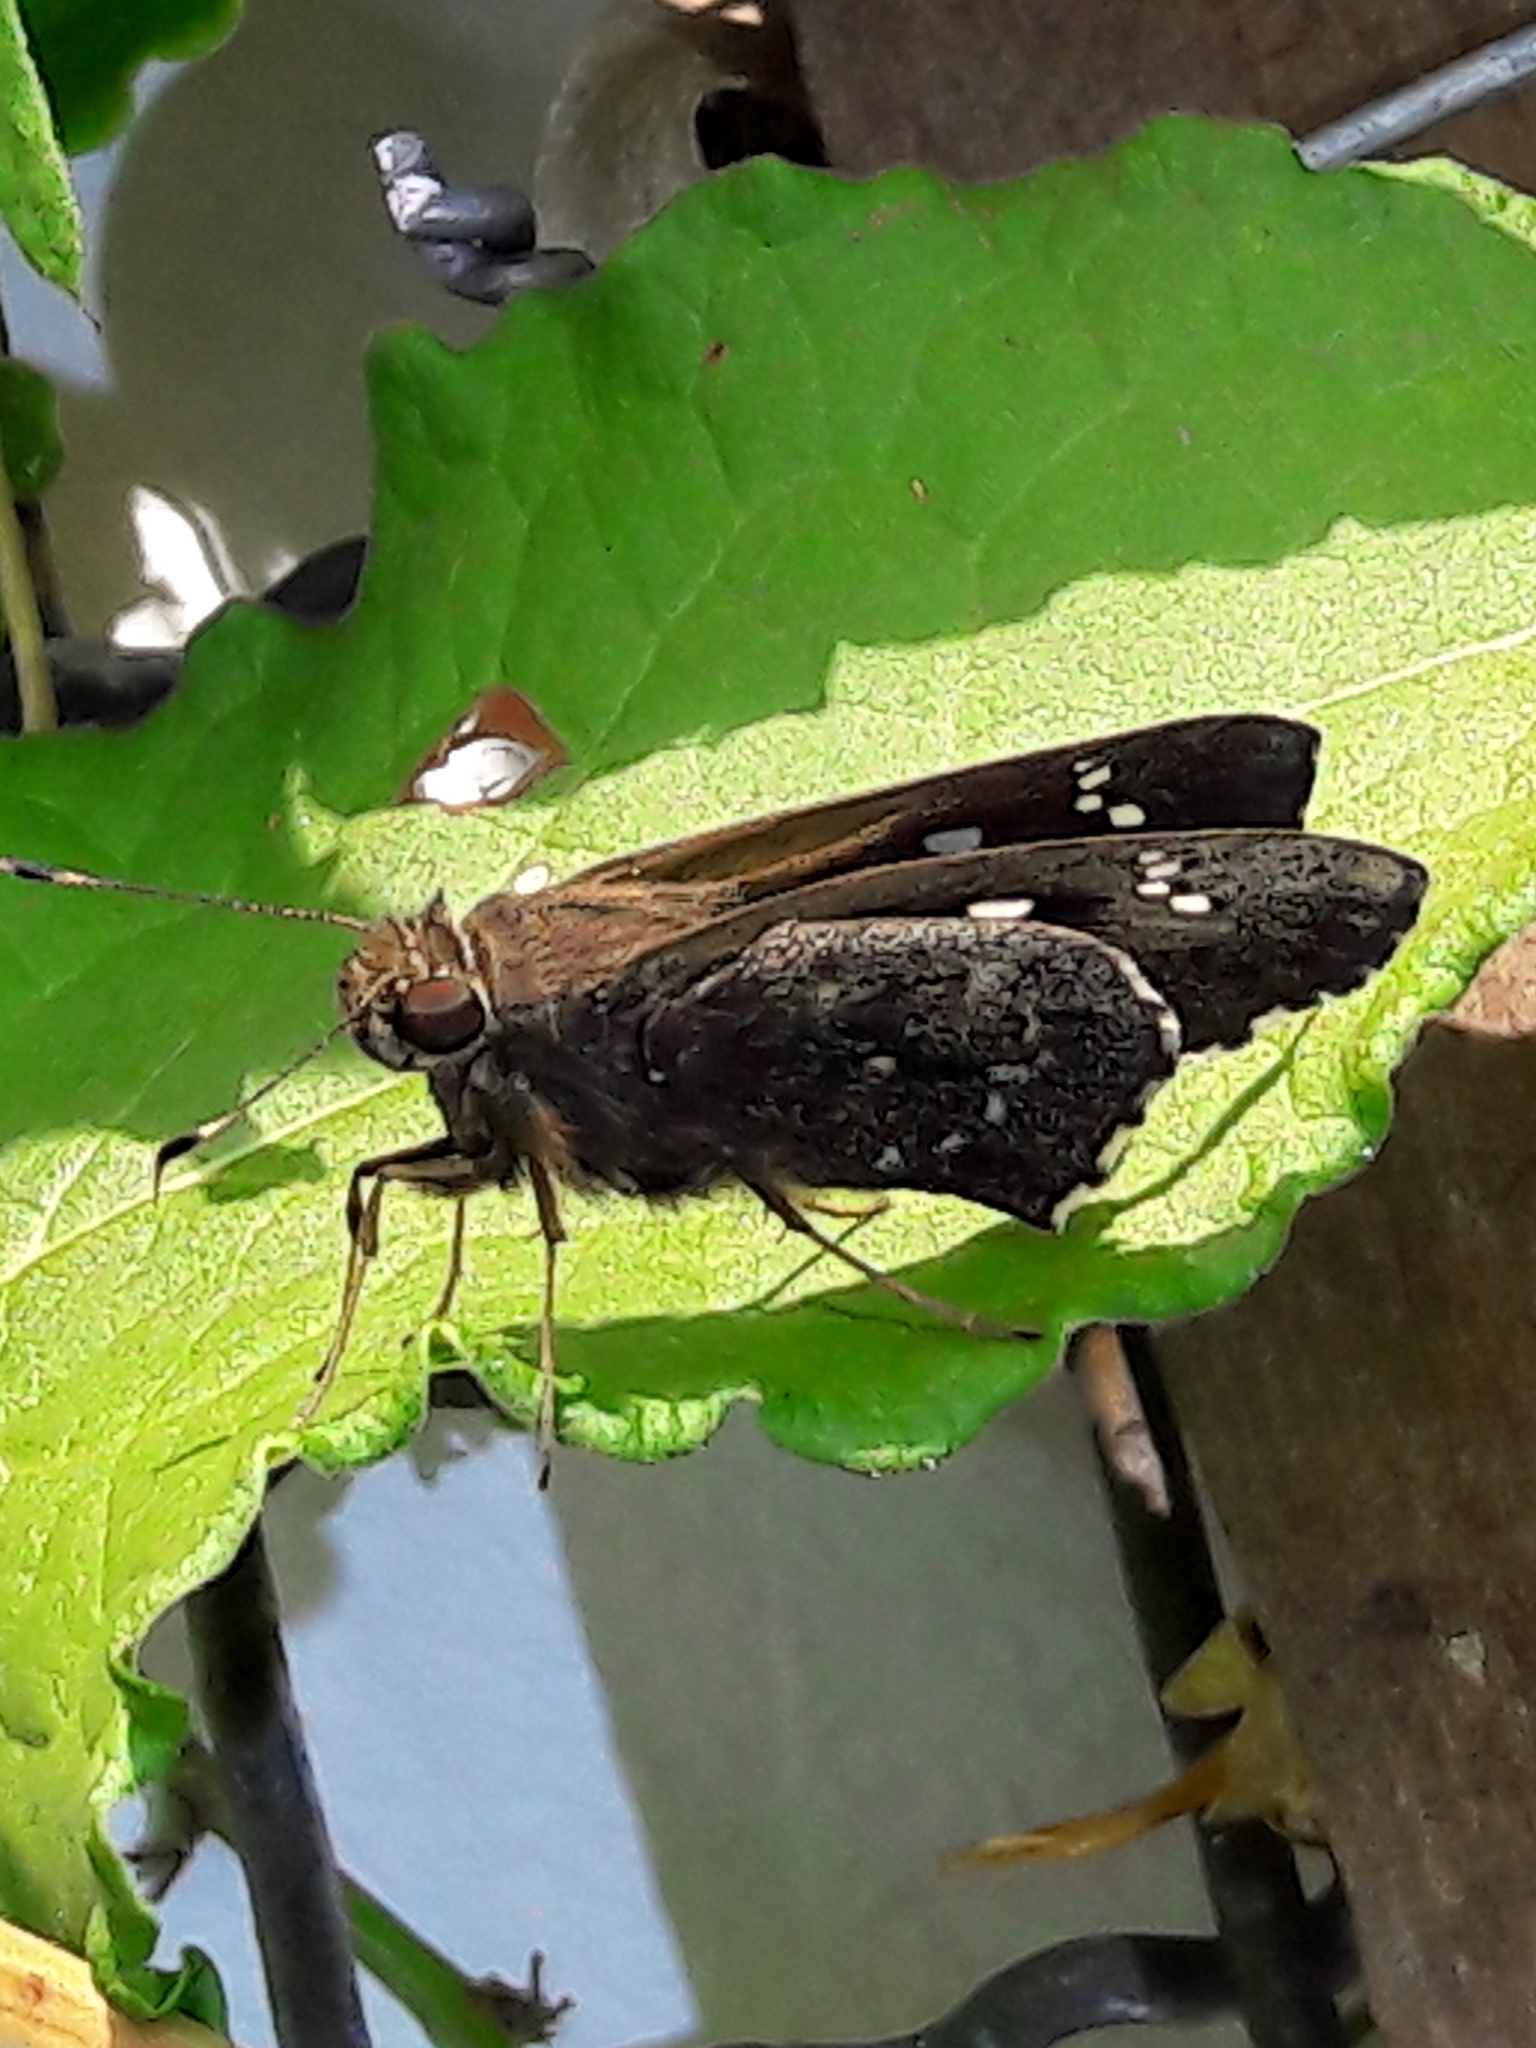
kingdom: Animalia
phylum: Arthropoda
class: Insecta
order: Lepidoptera
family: Hesperiidae
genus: Naevolus
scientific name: Naevolus orius
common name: Orius skipper
